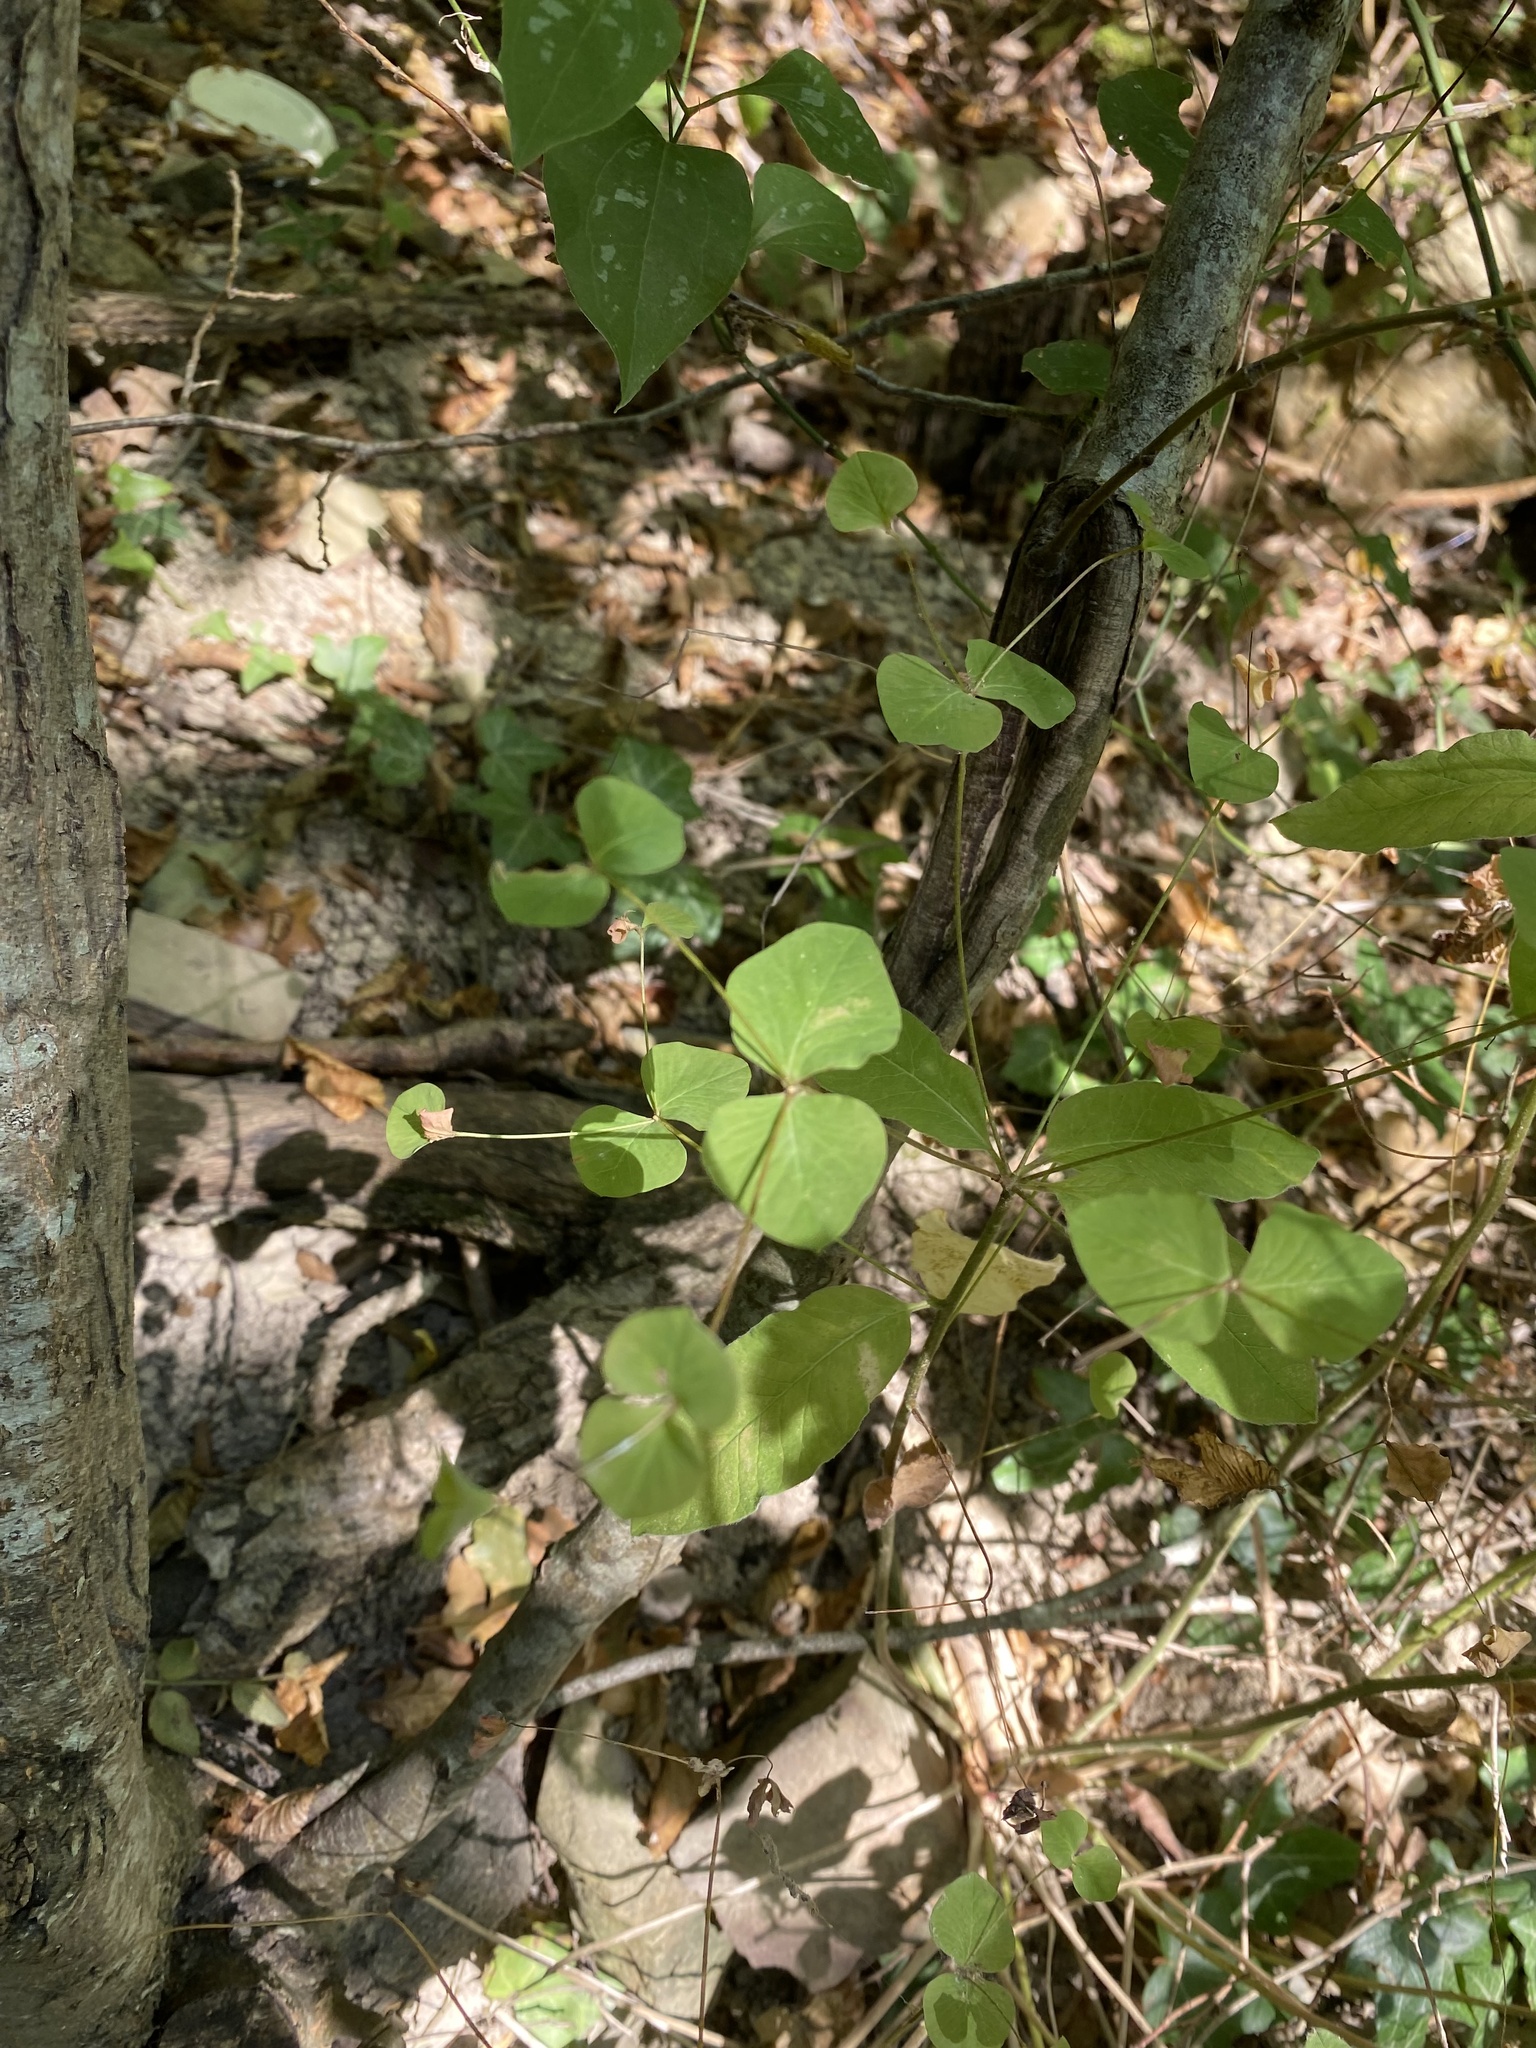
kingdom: Plantae
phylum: Tracheophyta
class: Magnoliopsida
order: Malpighiales
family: Euphorbiaceae
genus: Euphorbia
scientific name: Euphorbia squamosa
